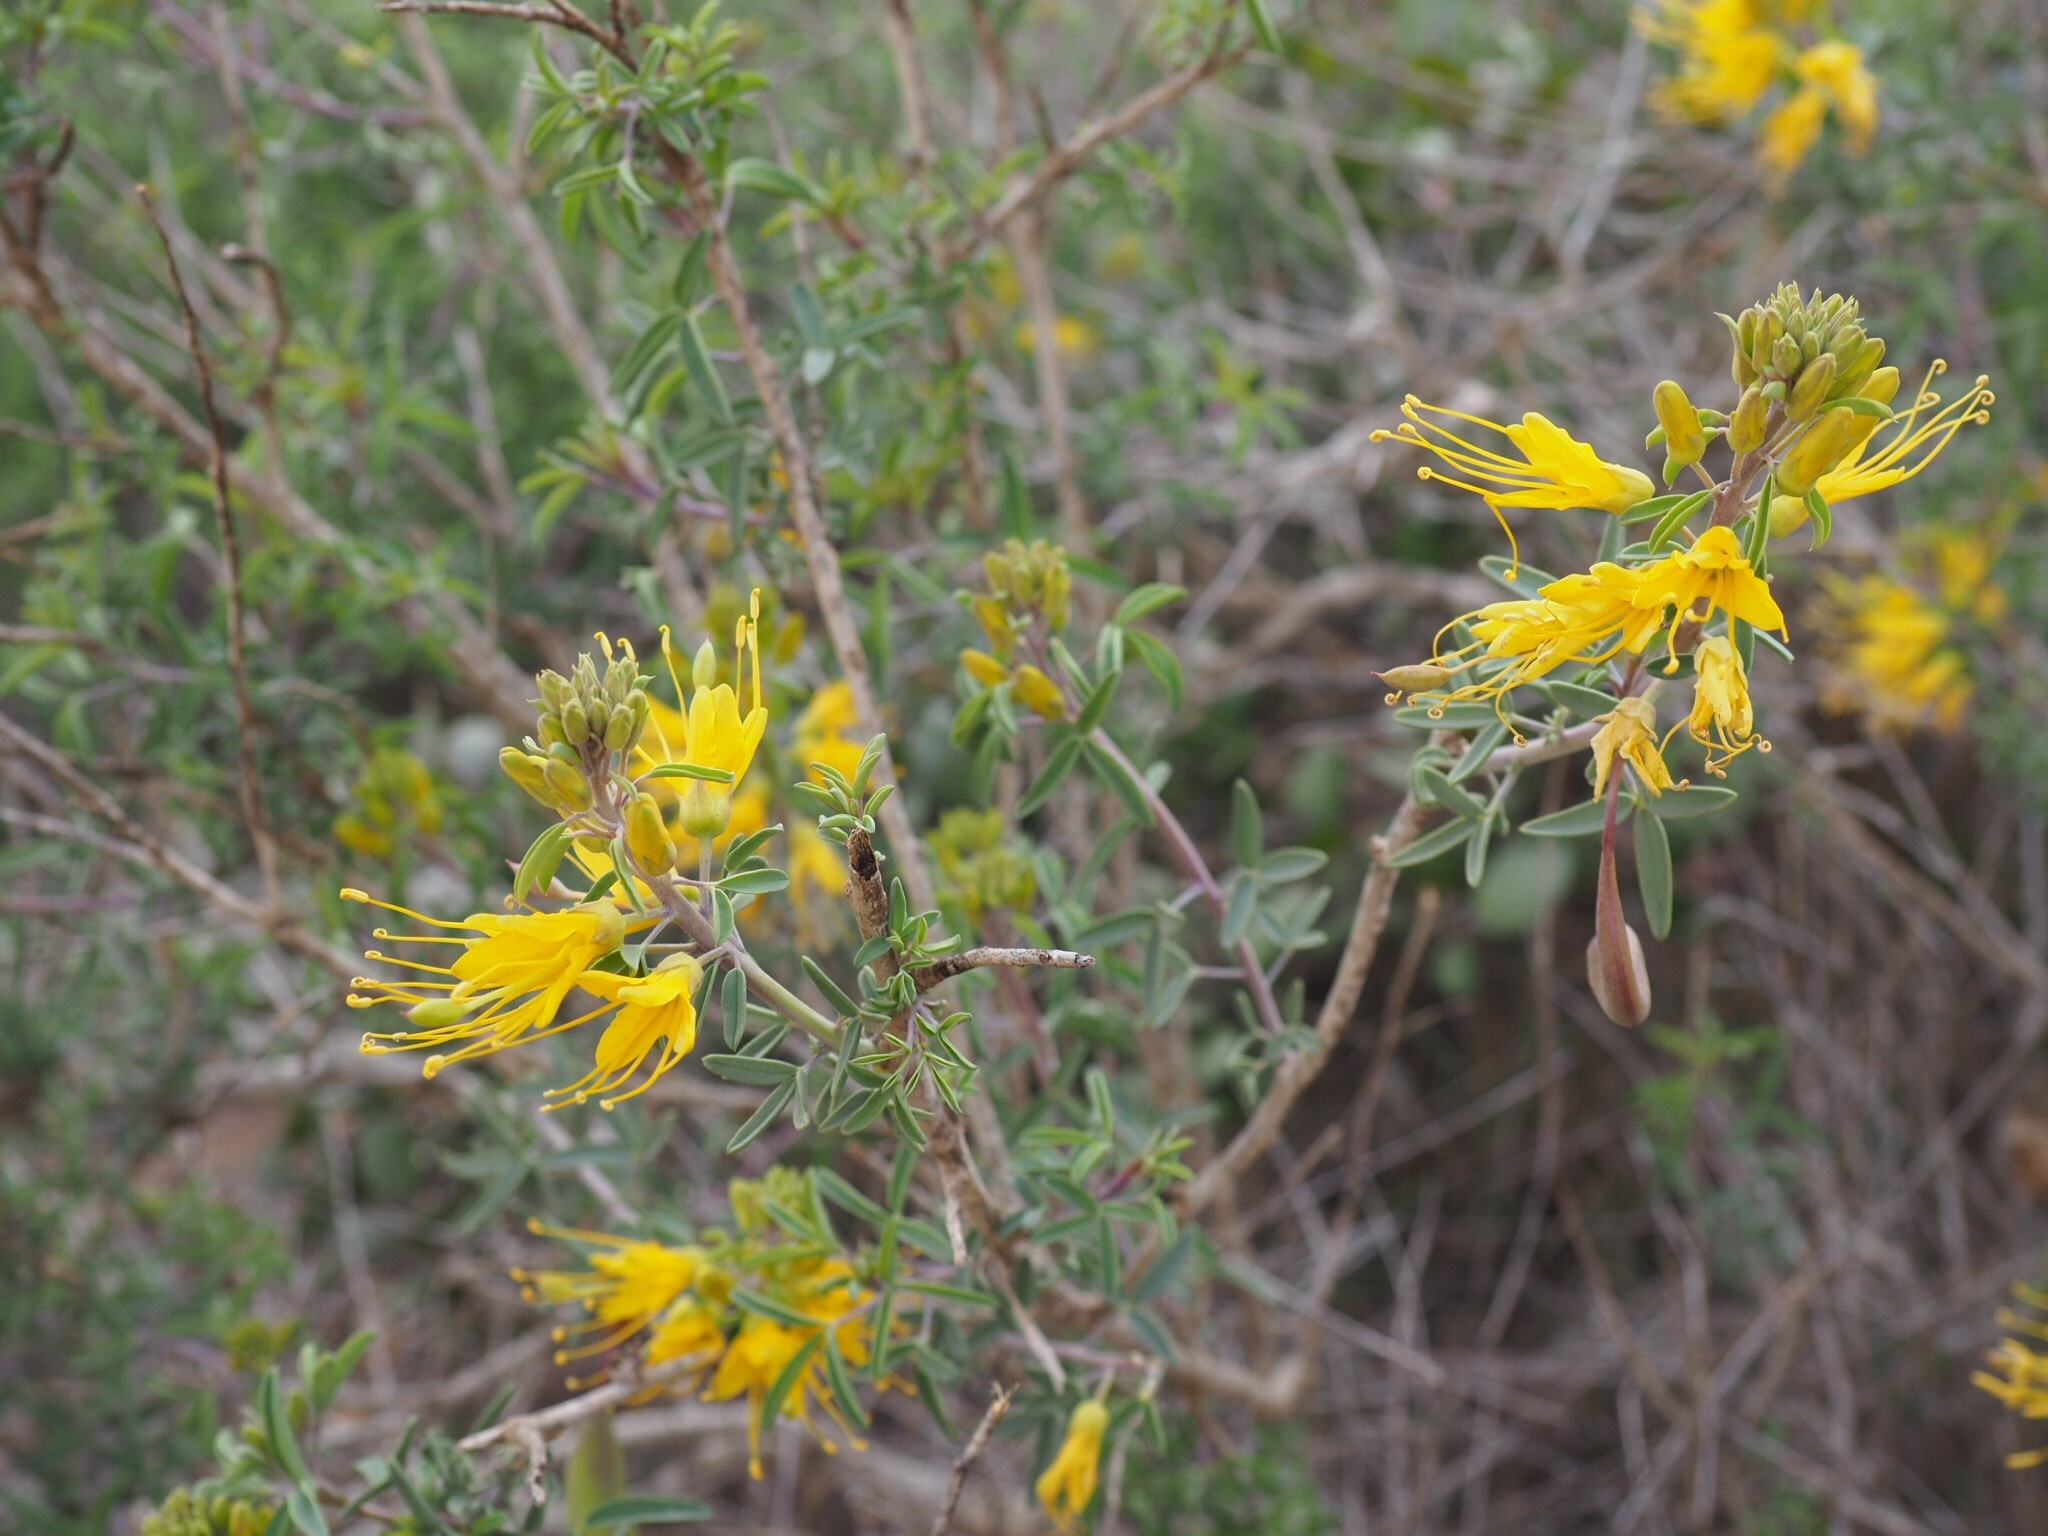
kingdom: Plantae
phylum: Tracheophyta
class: Magnoliopsida
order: Brassicales
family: Cleomaceae
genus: Cleomella
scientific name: Cleomella arborea
